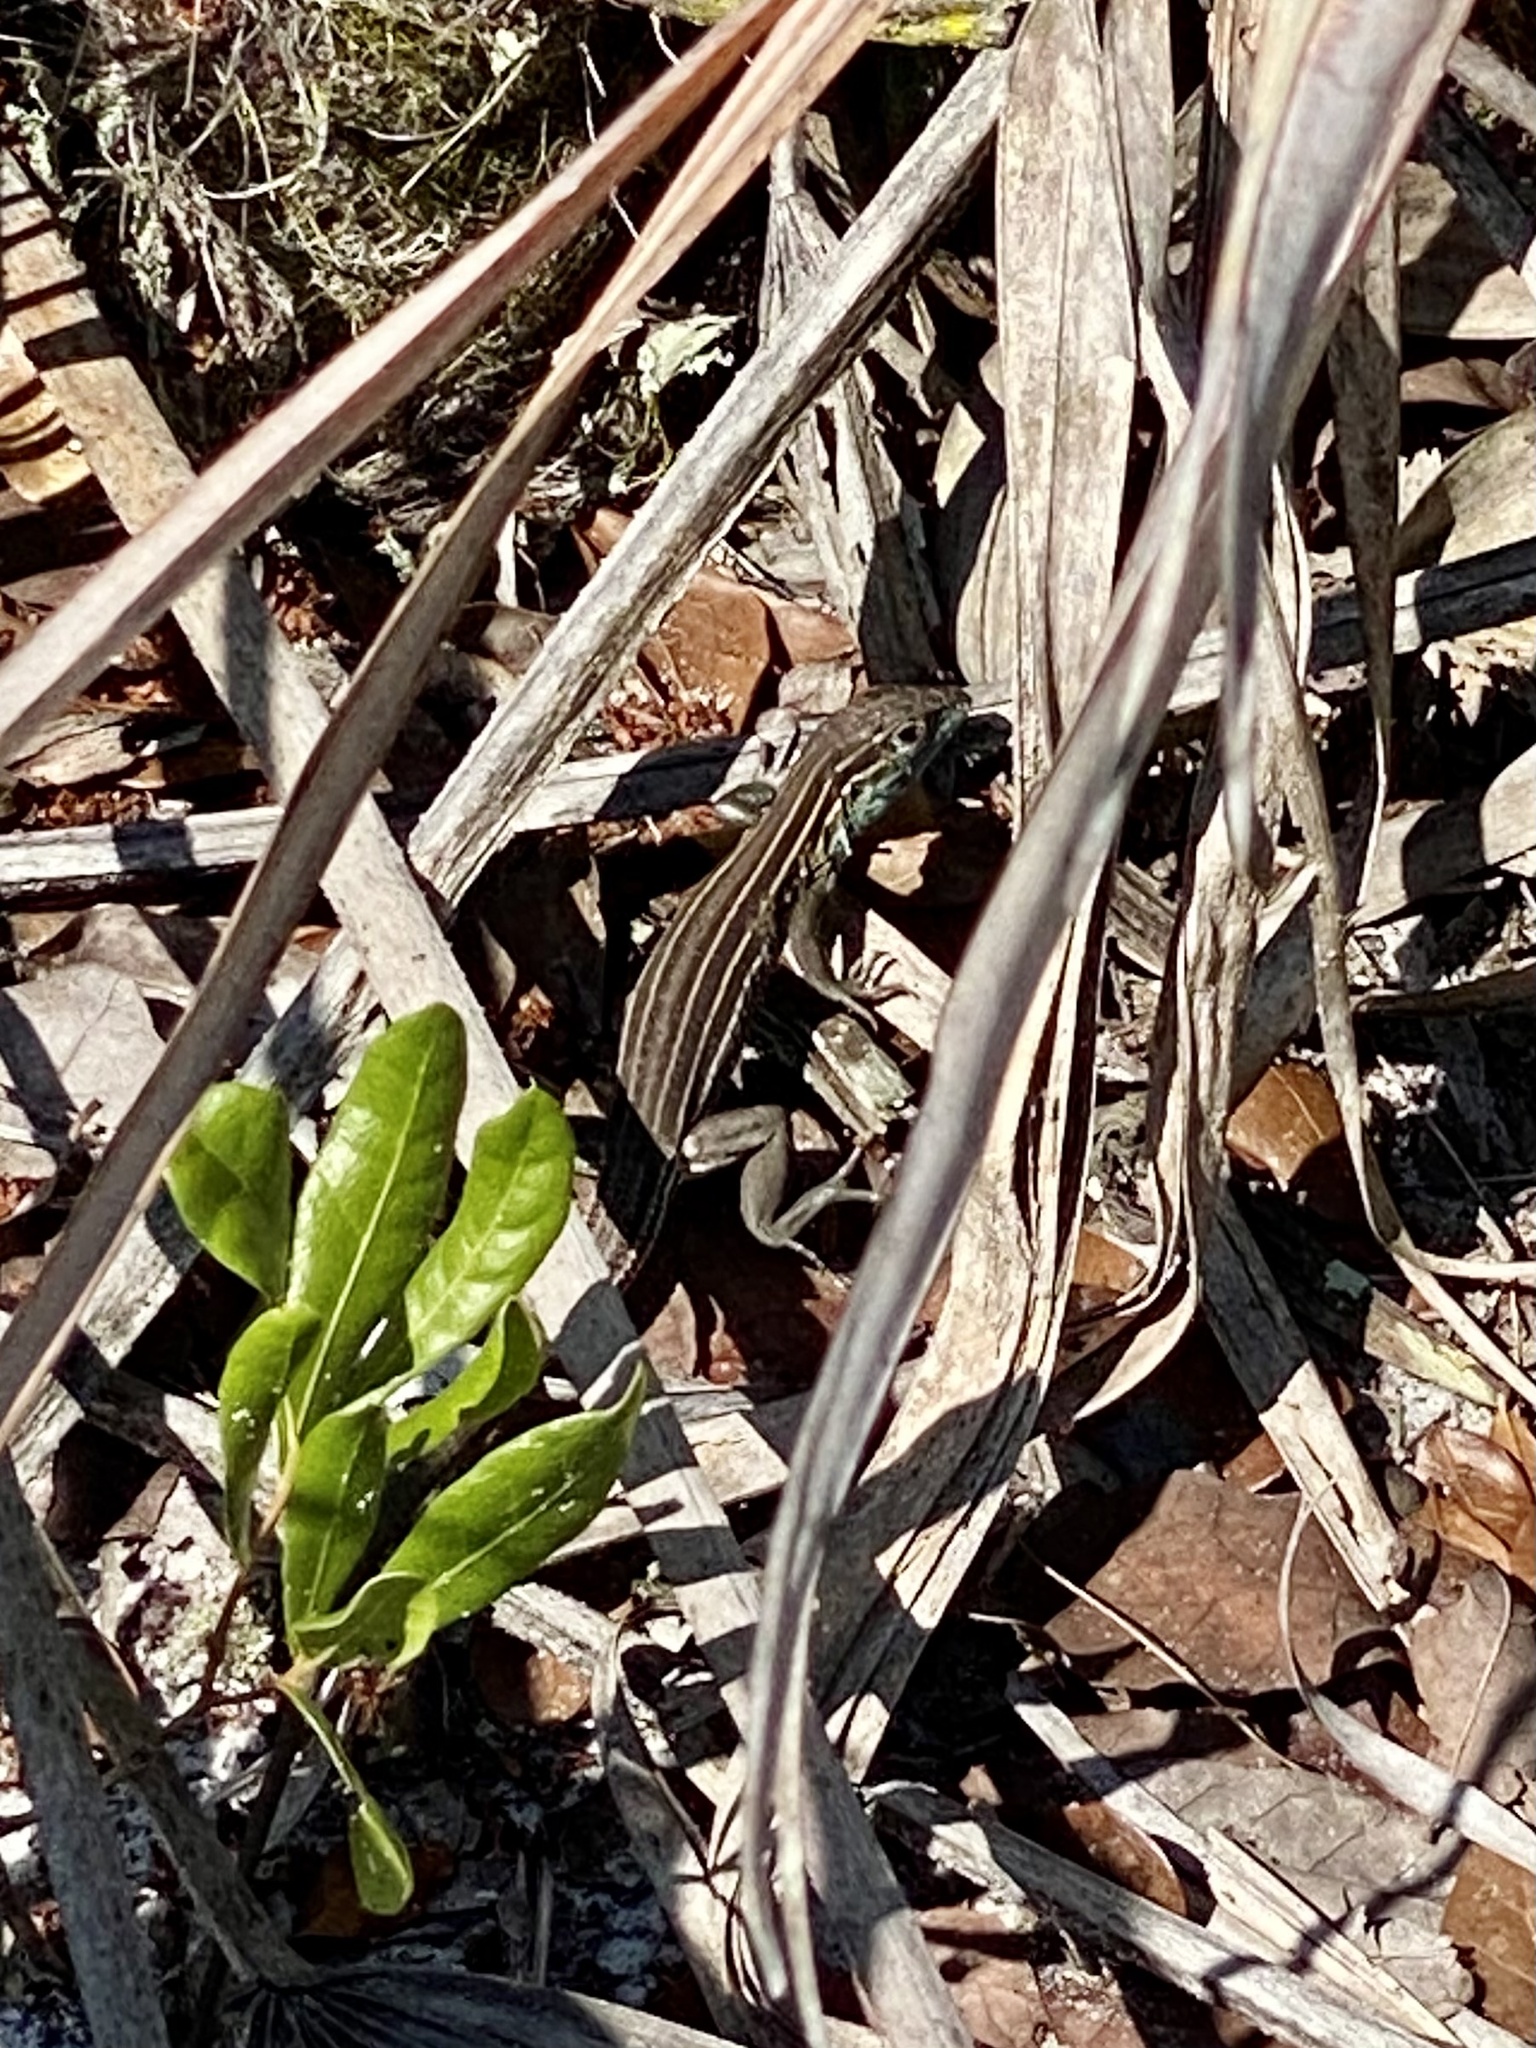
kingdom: Animalia
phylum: Chordata
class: Squamata
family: Teiidae
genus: Aspidoscelis
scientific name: Aspidoscelis sexlineatus
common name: Six-lined racerunner
